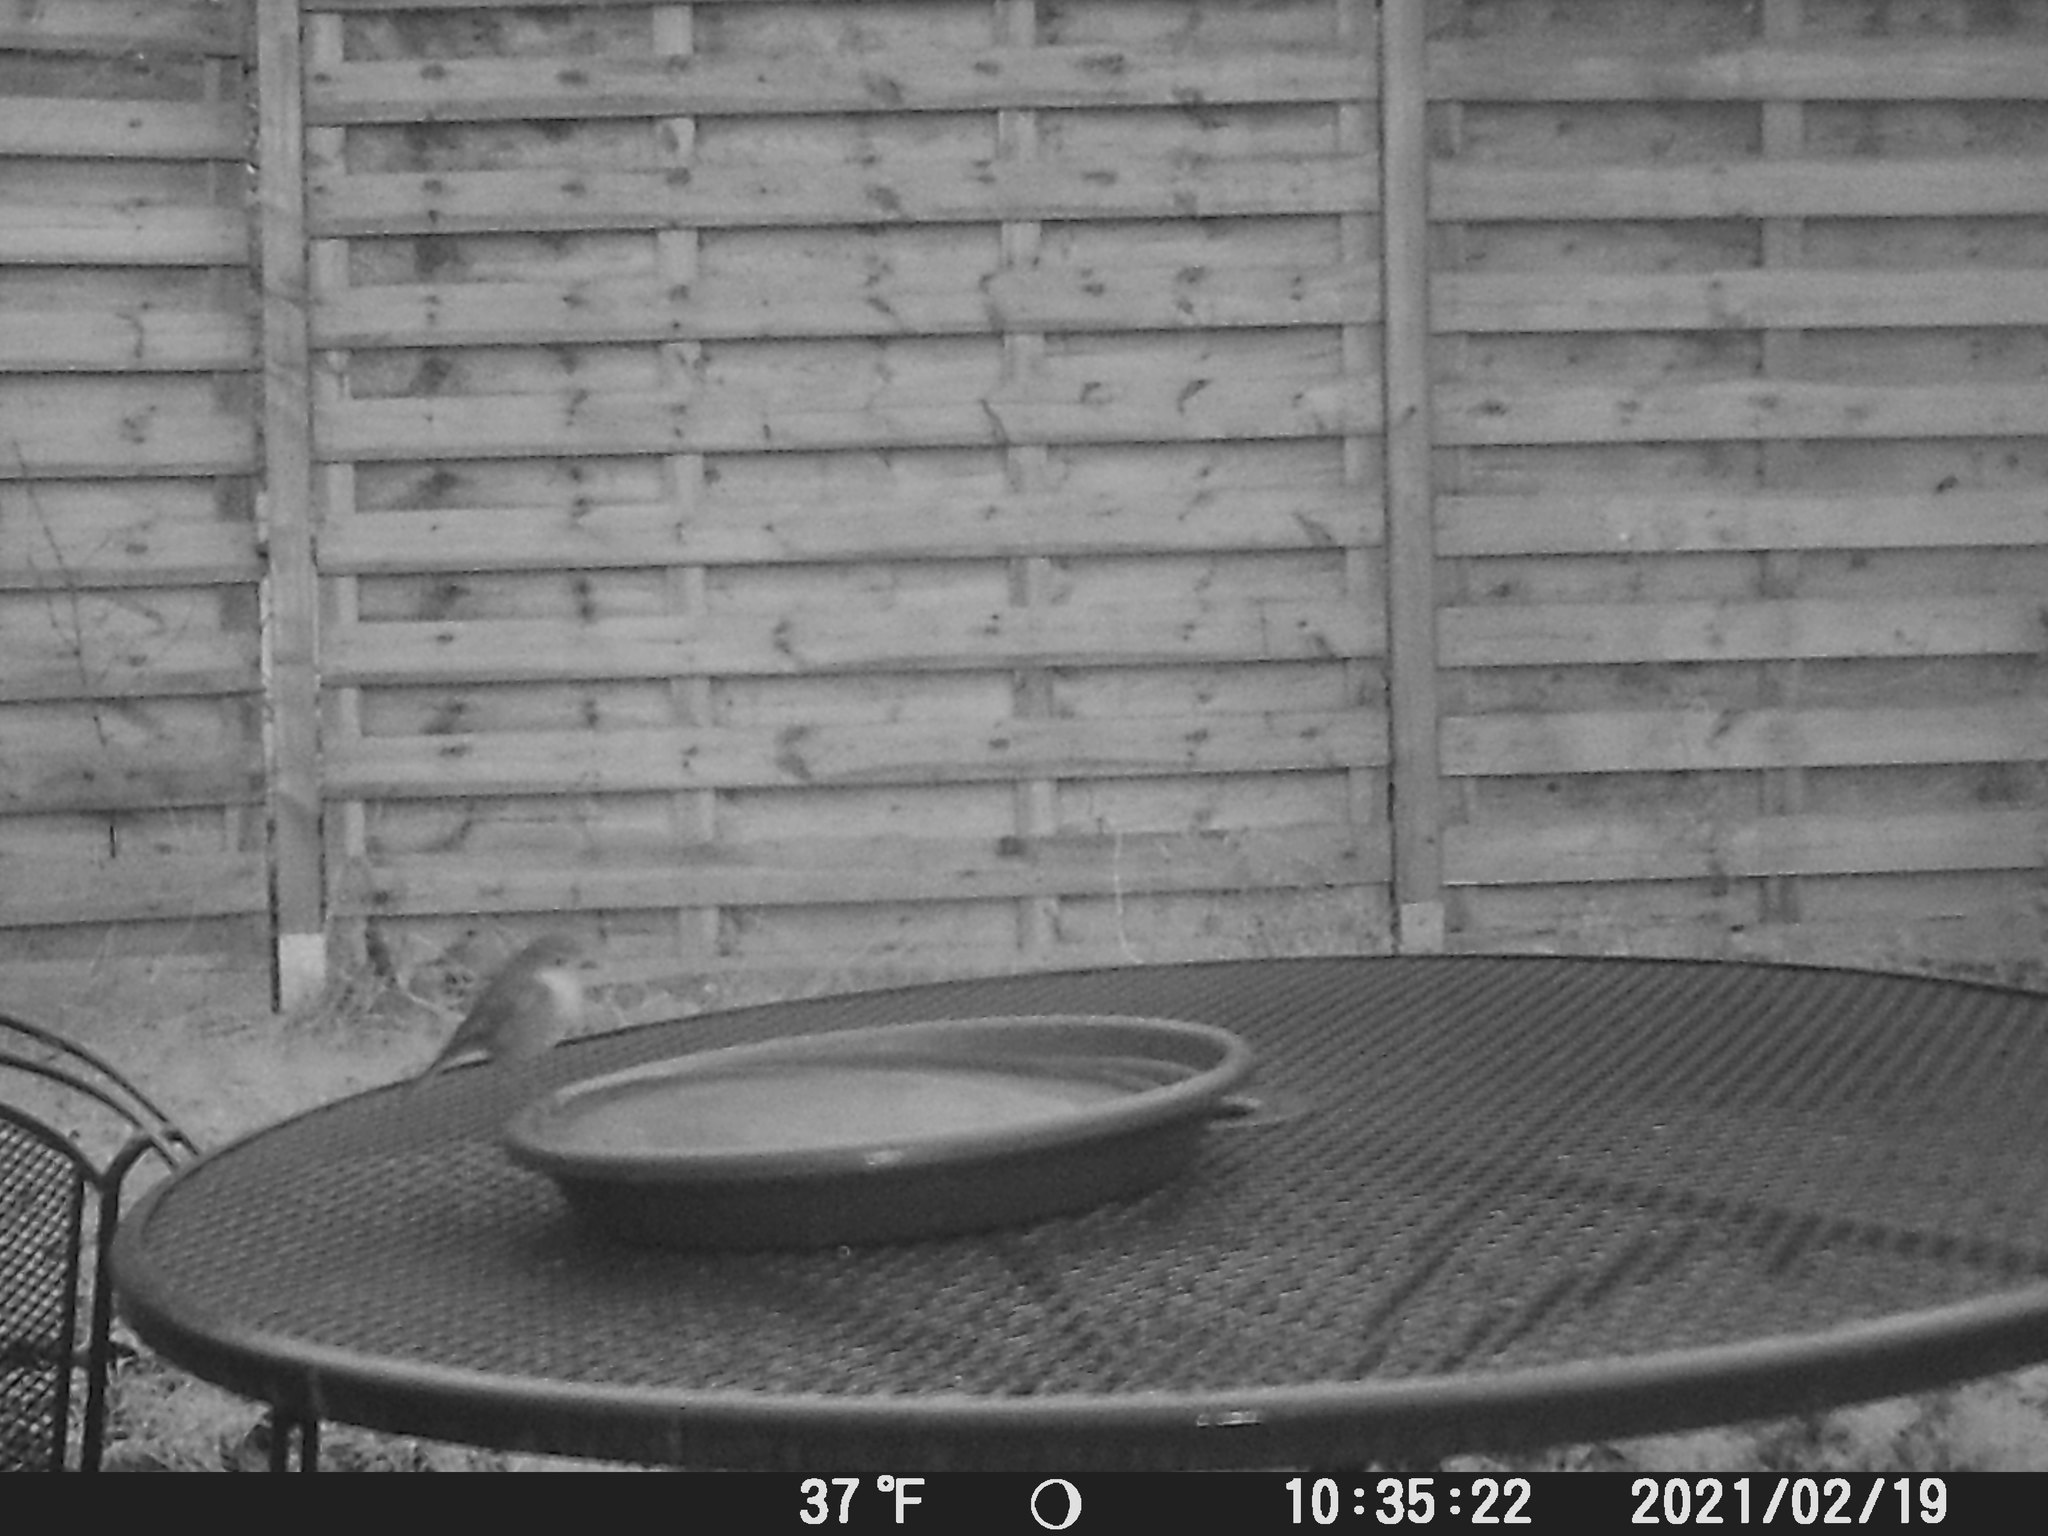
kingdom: Animalia
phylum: Chordata
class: Aves
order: Passeriformes
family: Muscicapidae
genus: Erithacus
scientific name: Erithacus rubecula
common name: European robin
